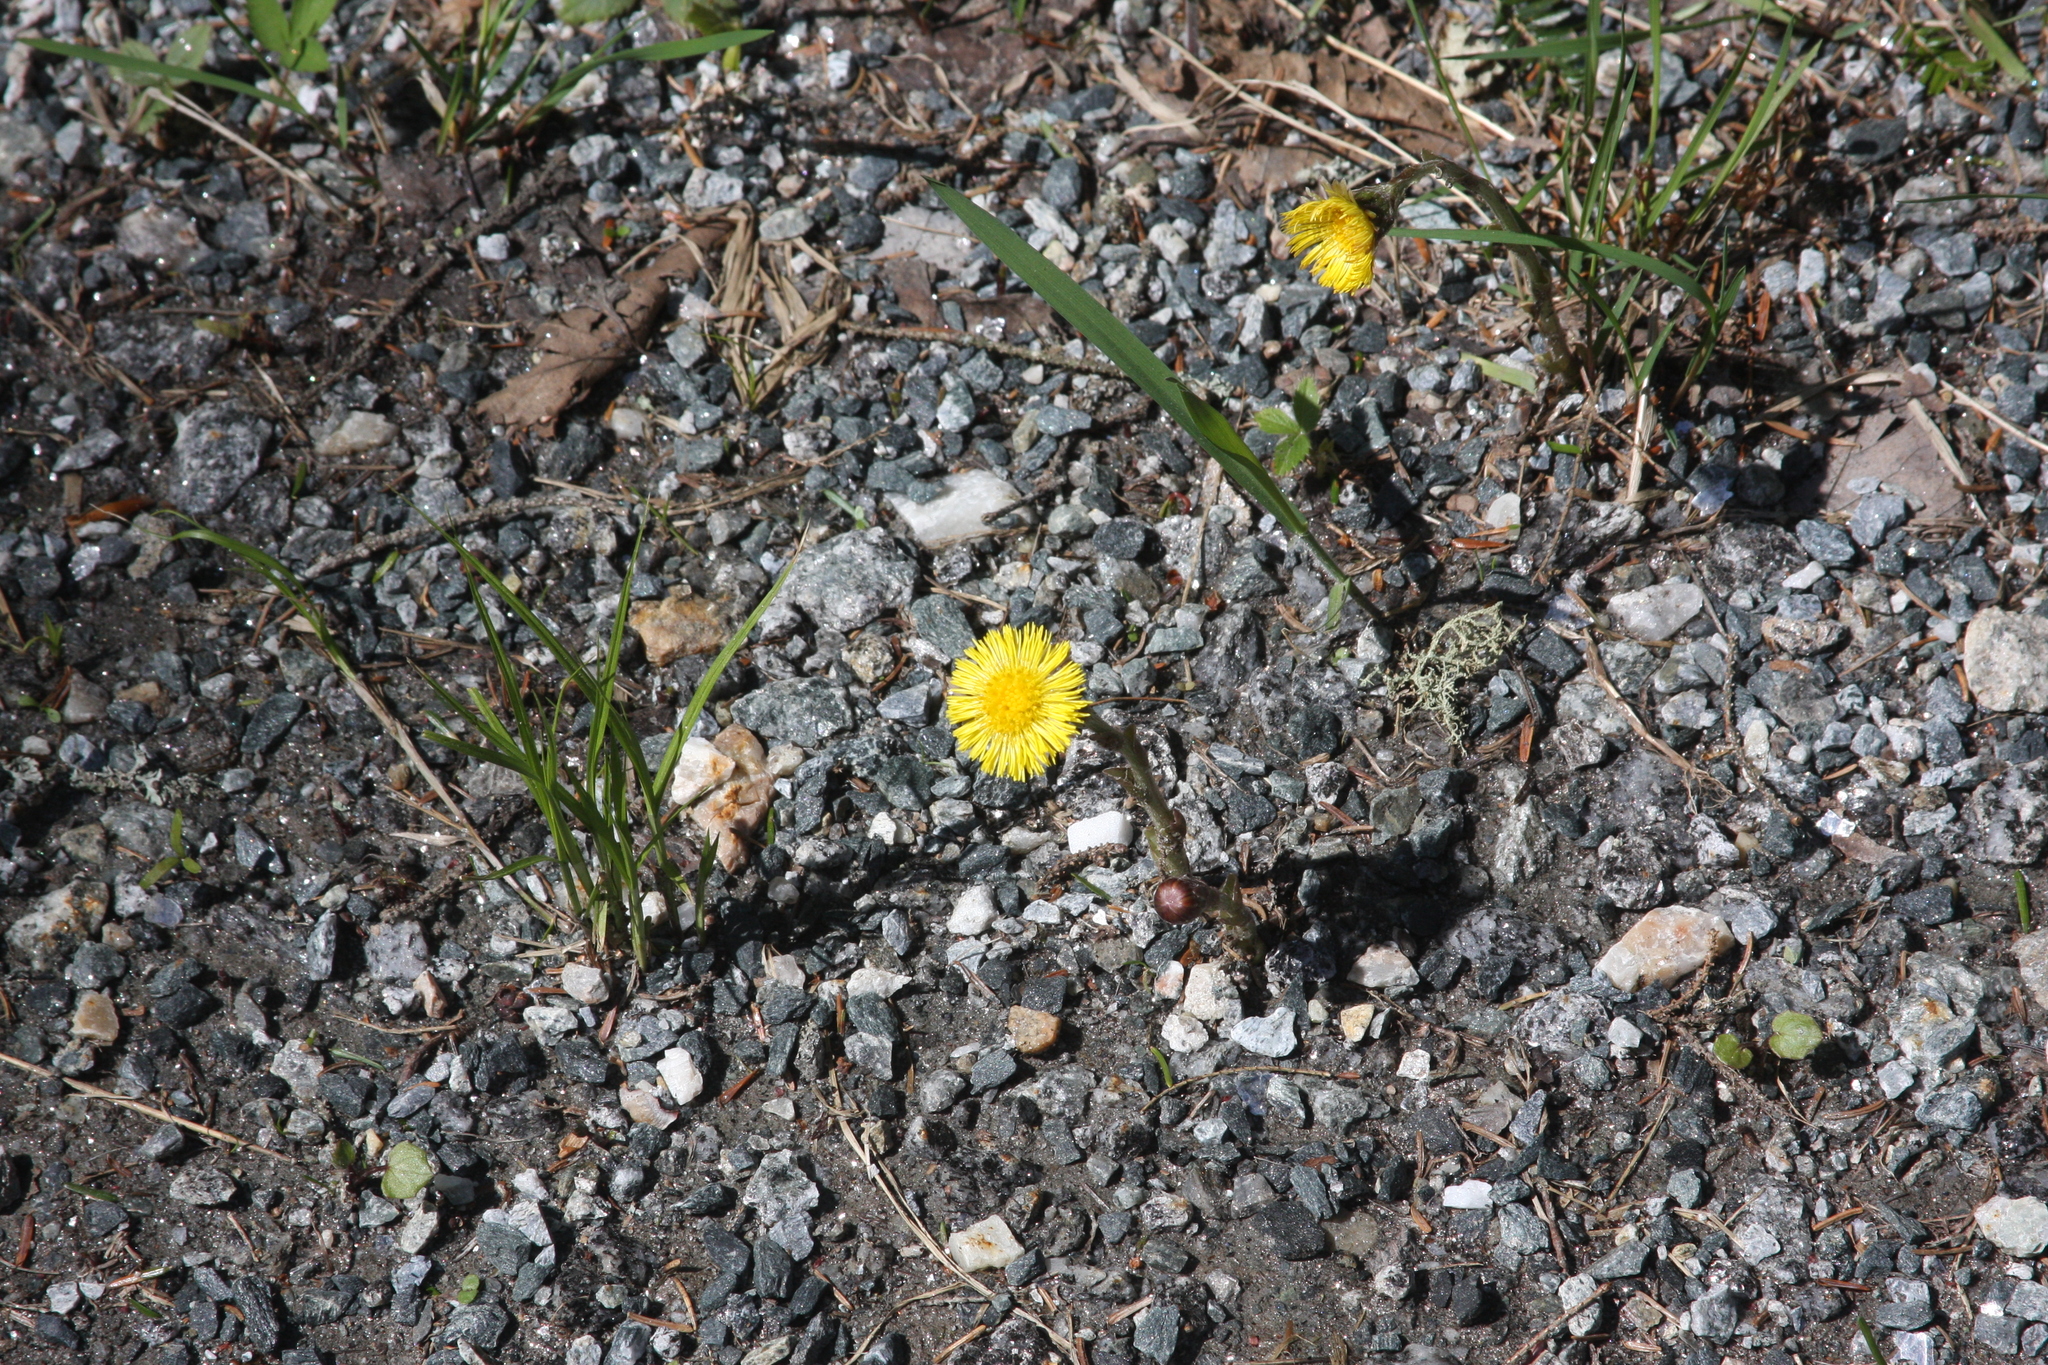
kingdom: Plantae
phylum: Tracheophyta
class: Magnoliopsida
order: Asterales
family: Asteraceae
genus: Tussilago
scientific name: Tussilago farfara
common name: Coltsfoot
